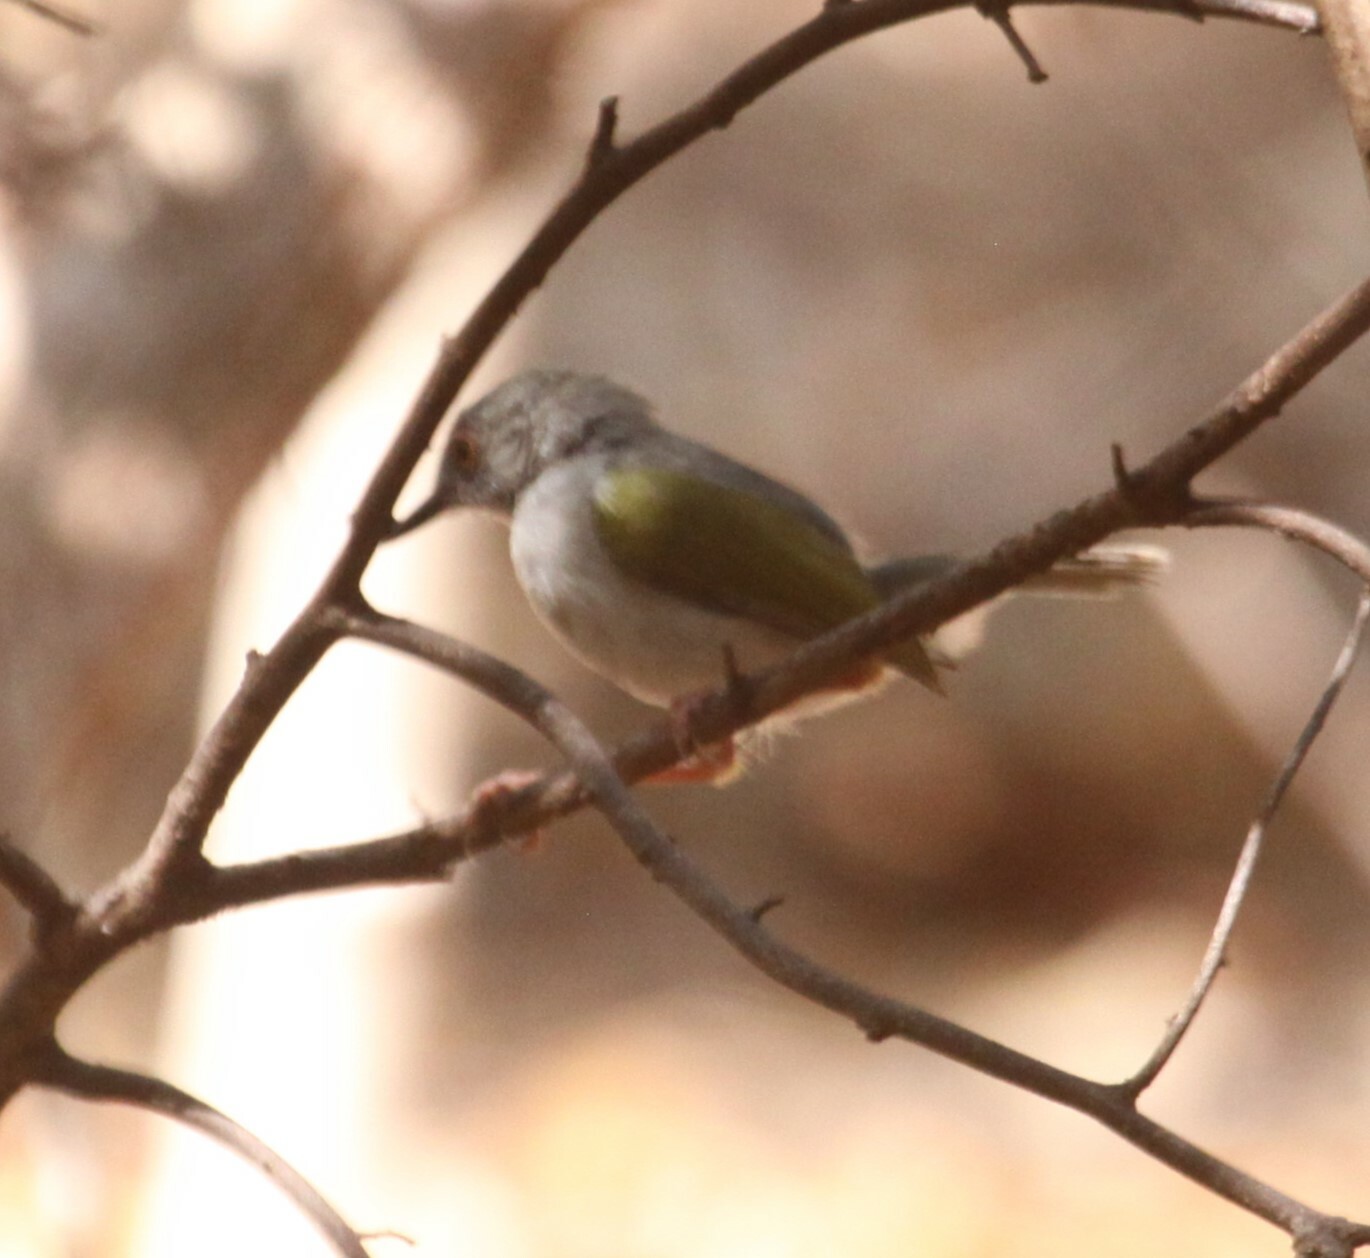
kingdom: Animalia
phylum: Chordata
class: Aves
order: Passeriformes
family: Cisticolidae
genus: Camaroptera
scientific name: Camaroptera brachyura
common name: Green-backed camaroptera
